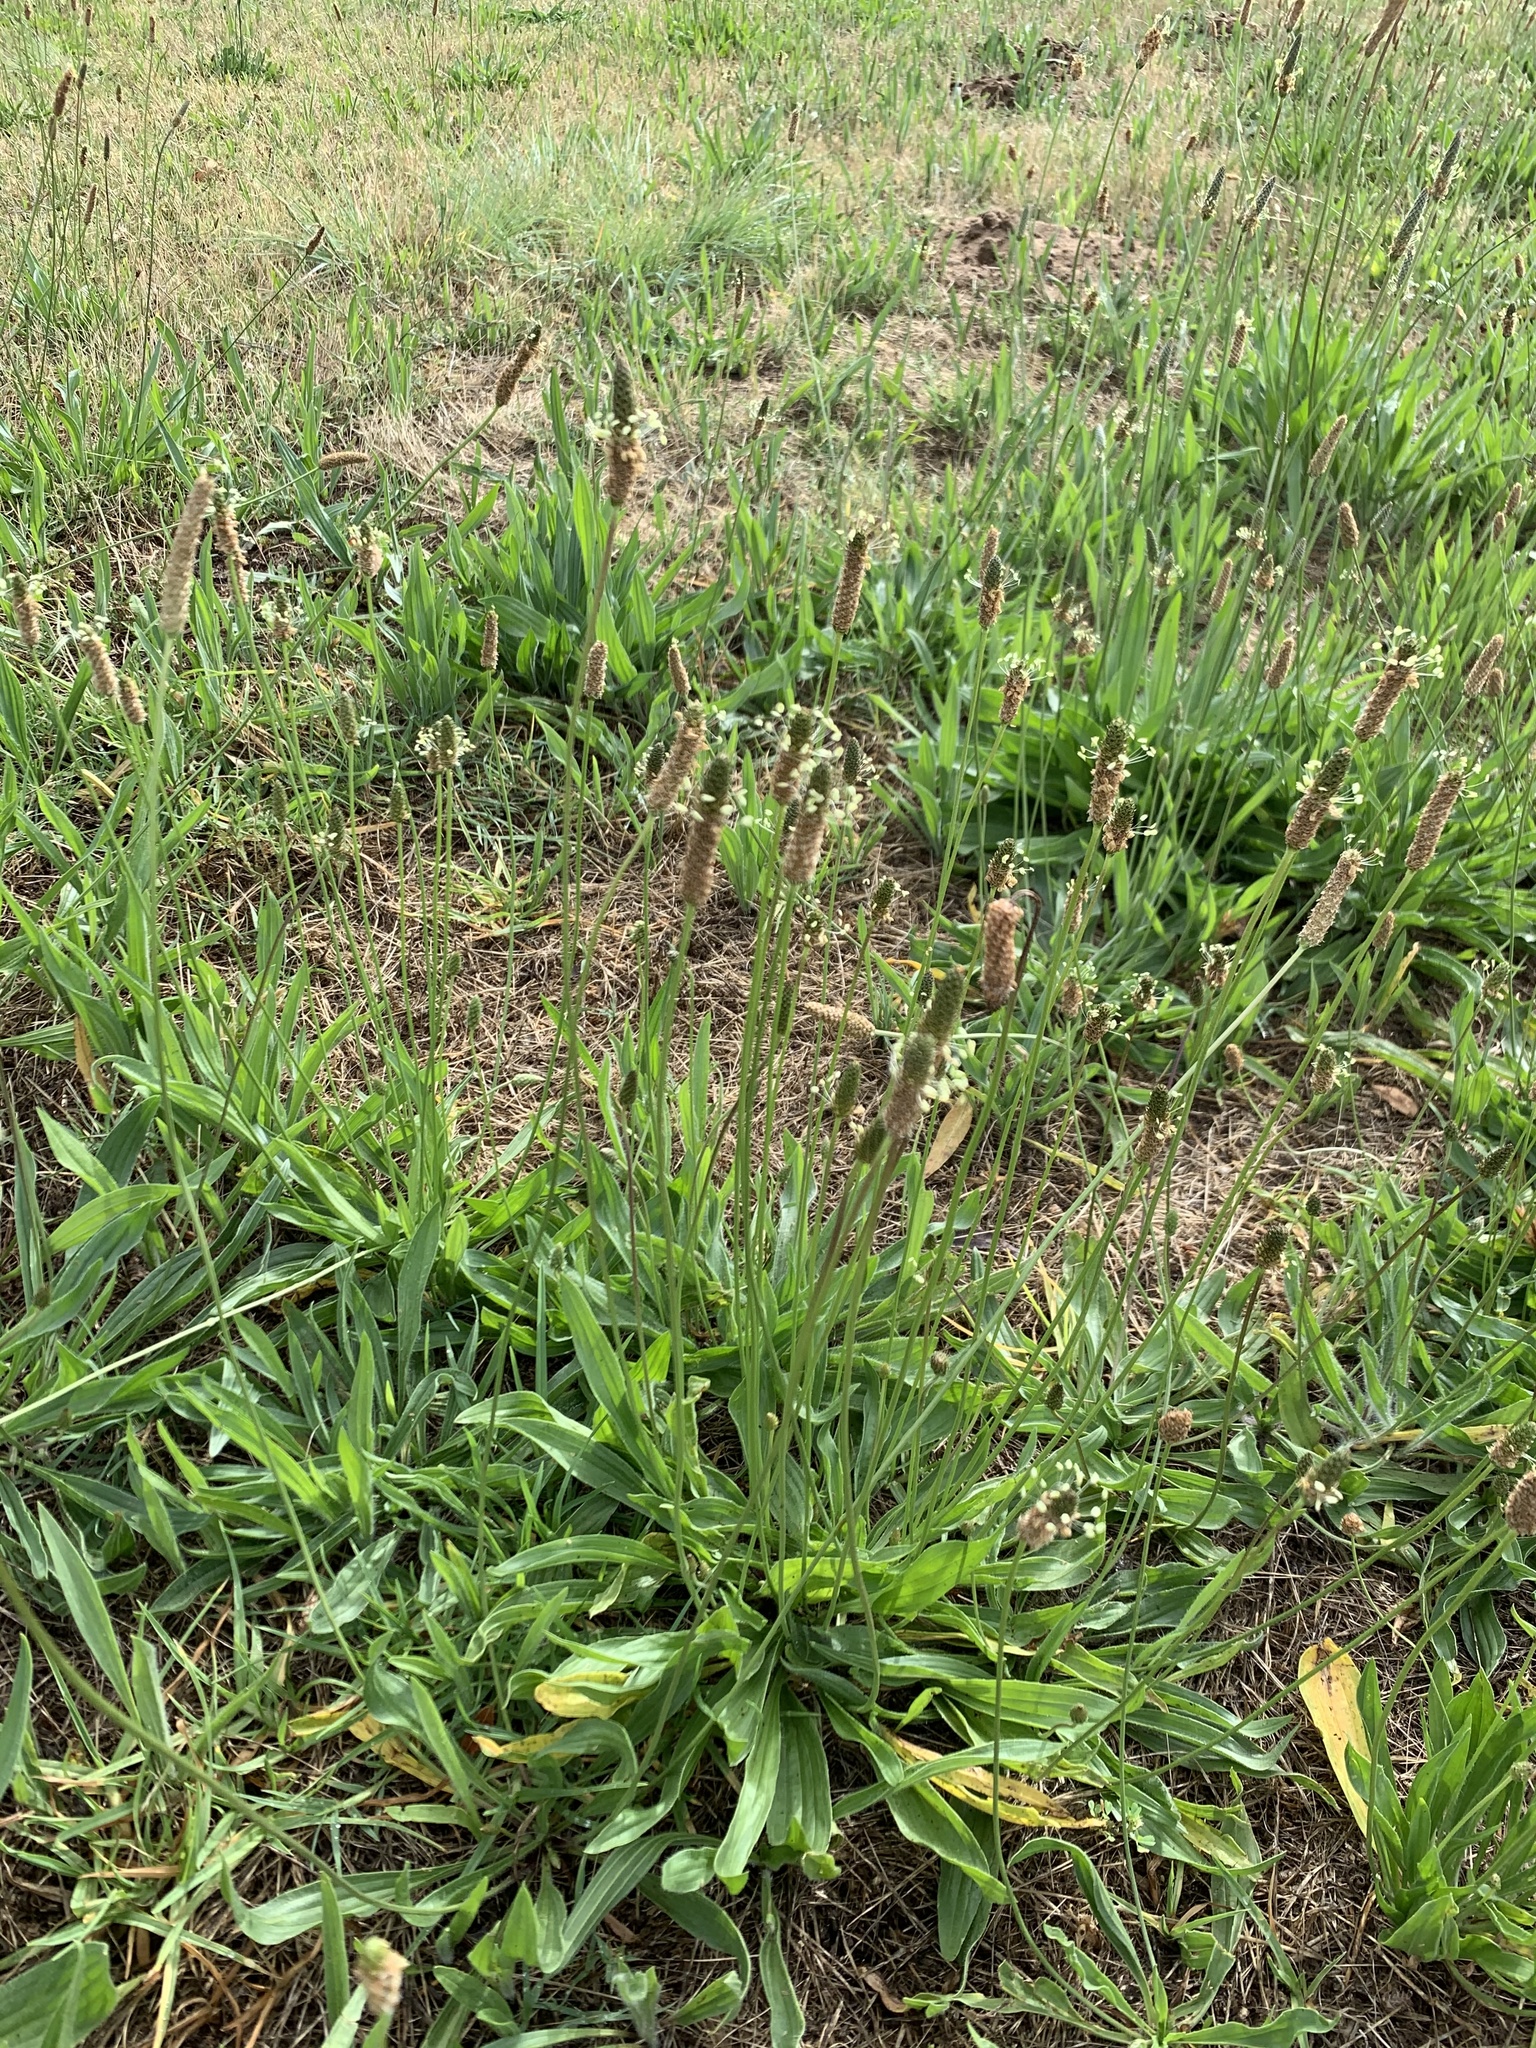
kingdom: Plantae
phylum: Tracheophyta
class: Magnoliopsida
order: Lamiales
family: Plantaginaceae
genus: Plantago
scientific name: Plantago lanceolata
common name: Ribwort plantain
